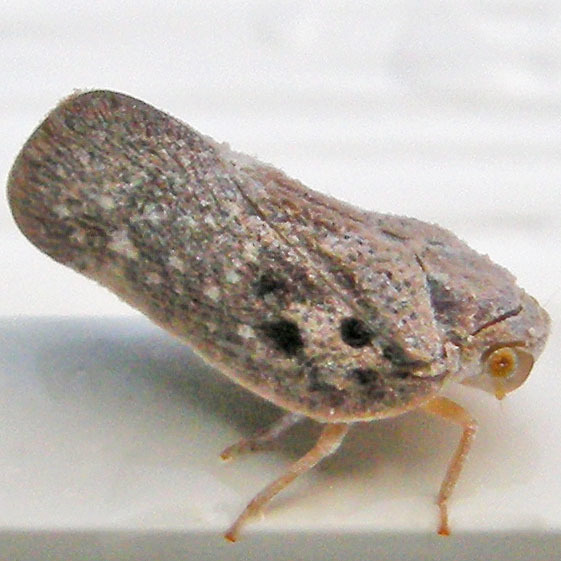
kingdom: Animalia
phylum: Arthropoda
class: Insecta
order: Hemiptera
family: Flatidae
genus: Metcalfa
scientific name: Metcalfa pruinosa
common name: Citrus flatid planthopper
